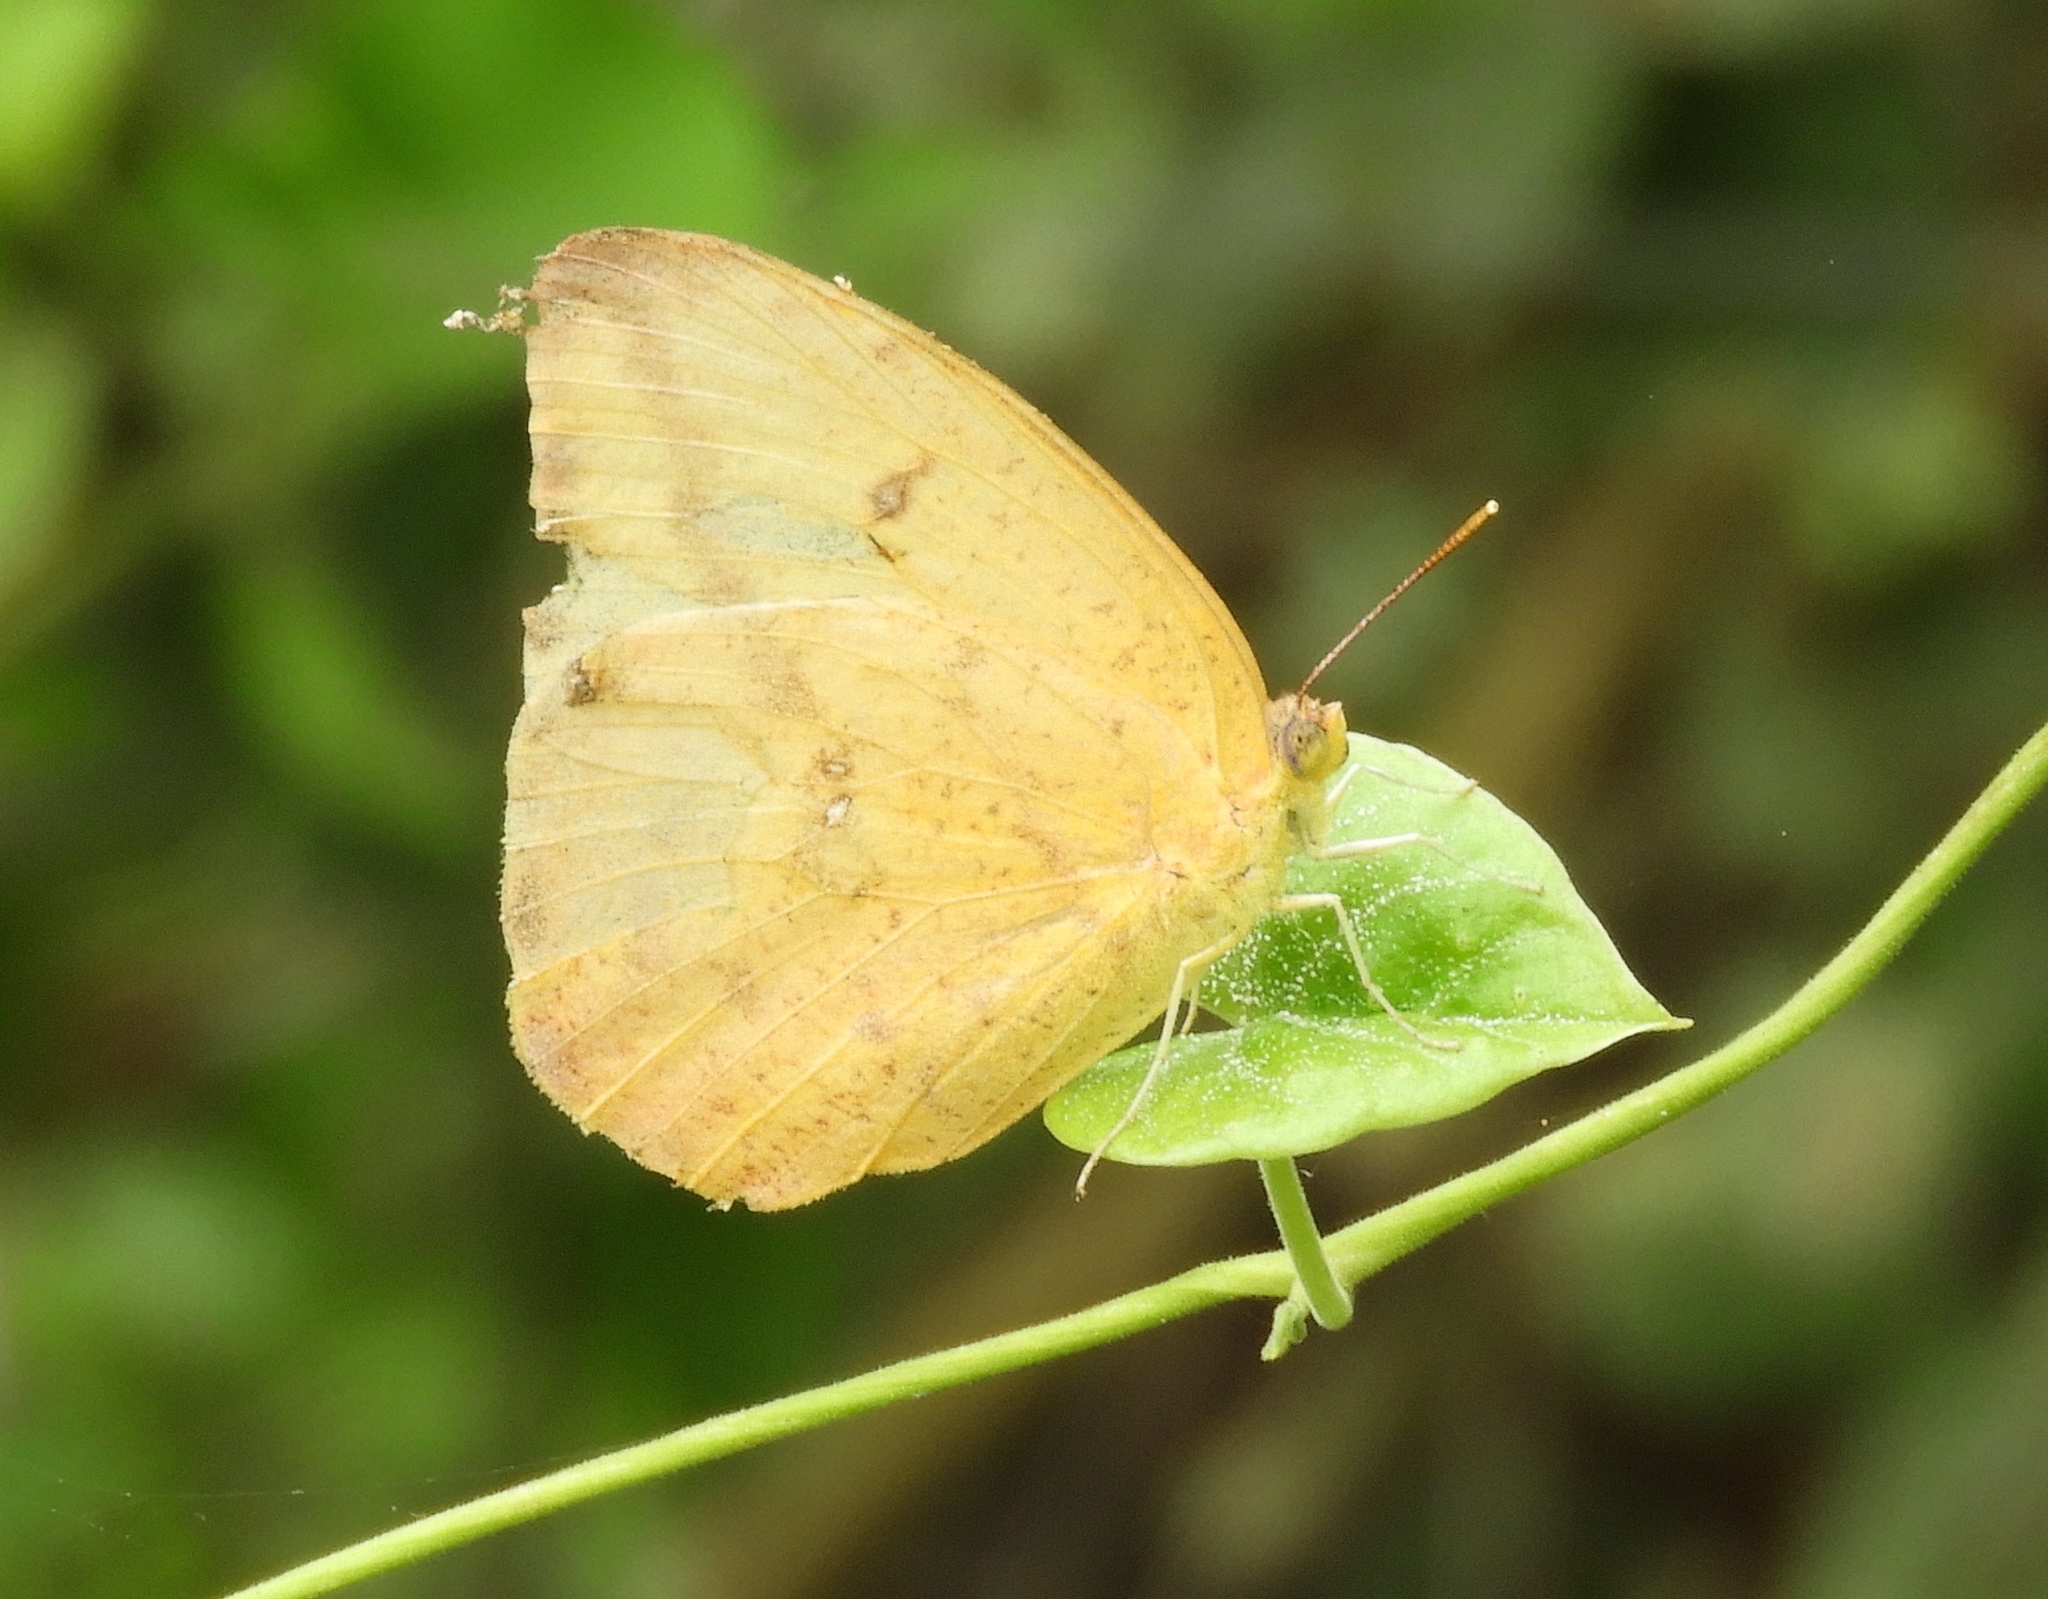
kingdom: Animalia
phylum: Arthropoda
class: Insecta
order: Lepidoptera
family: Pieridae
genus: Phoebis
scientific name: Phoebis agarithe
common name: Large orange sulphur
